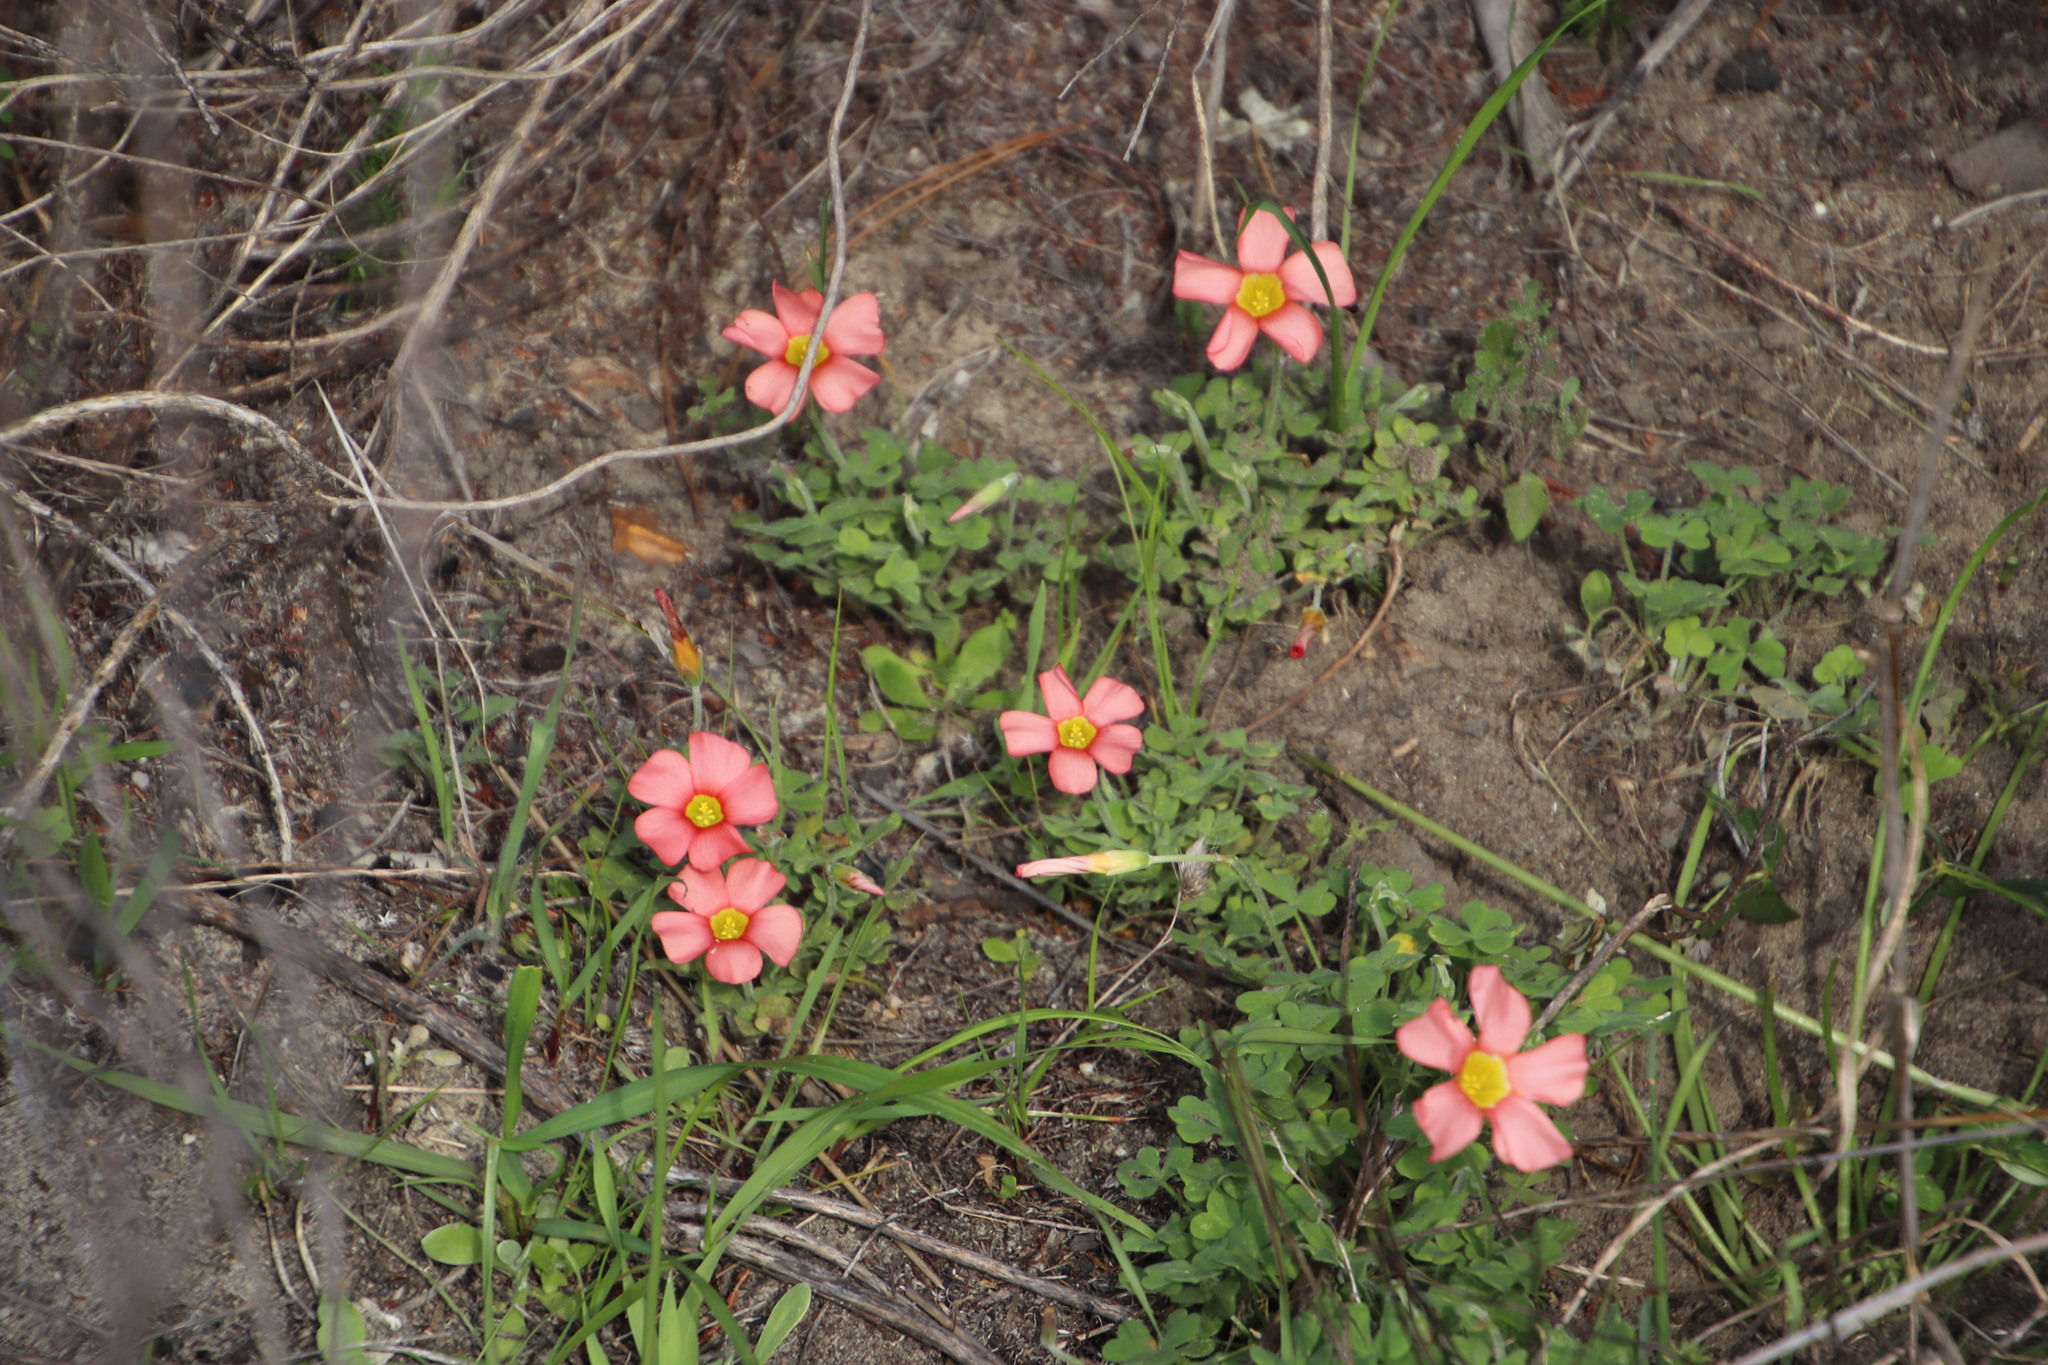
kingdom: Plantae
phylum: Tracheophyta
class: Magnoliopsida
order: Oxalidales
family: Oxalidaceae
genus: Oxalis
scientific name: Oxalis obtusa
